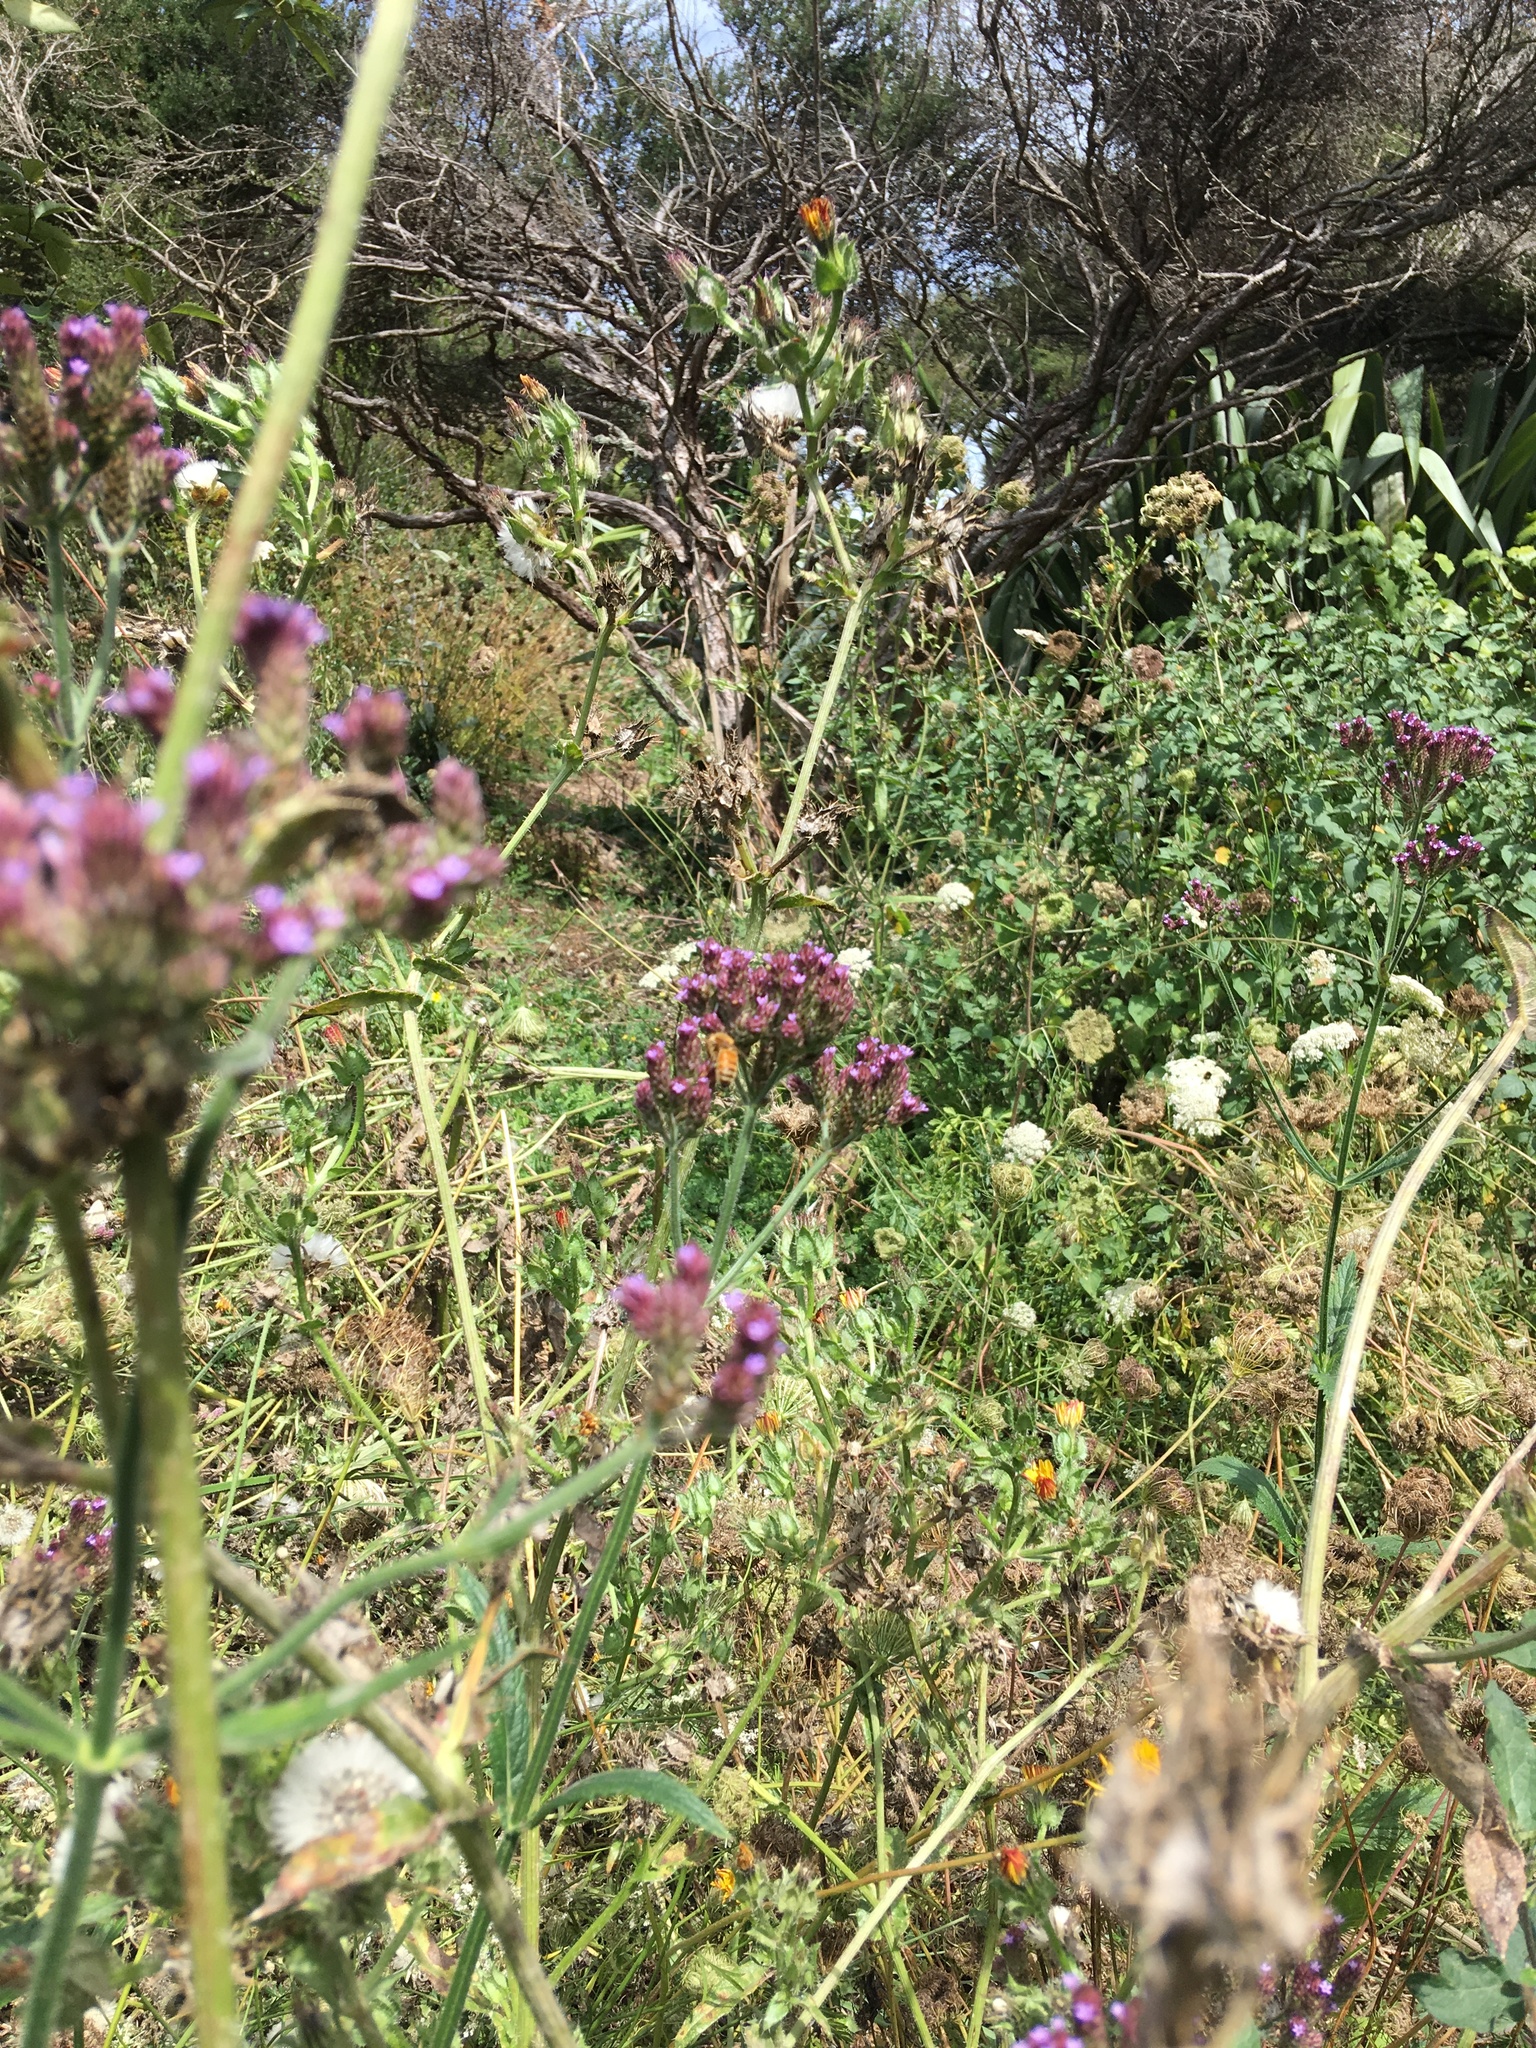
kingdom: Animalia
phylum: Arthropoda
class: Insecta
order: Hymenoptera
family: Apidae
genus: Apis
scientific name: Apis mellifera
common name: Honey bee
